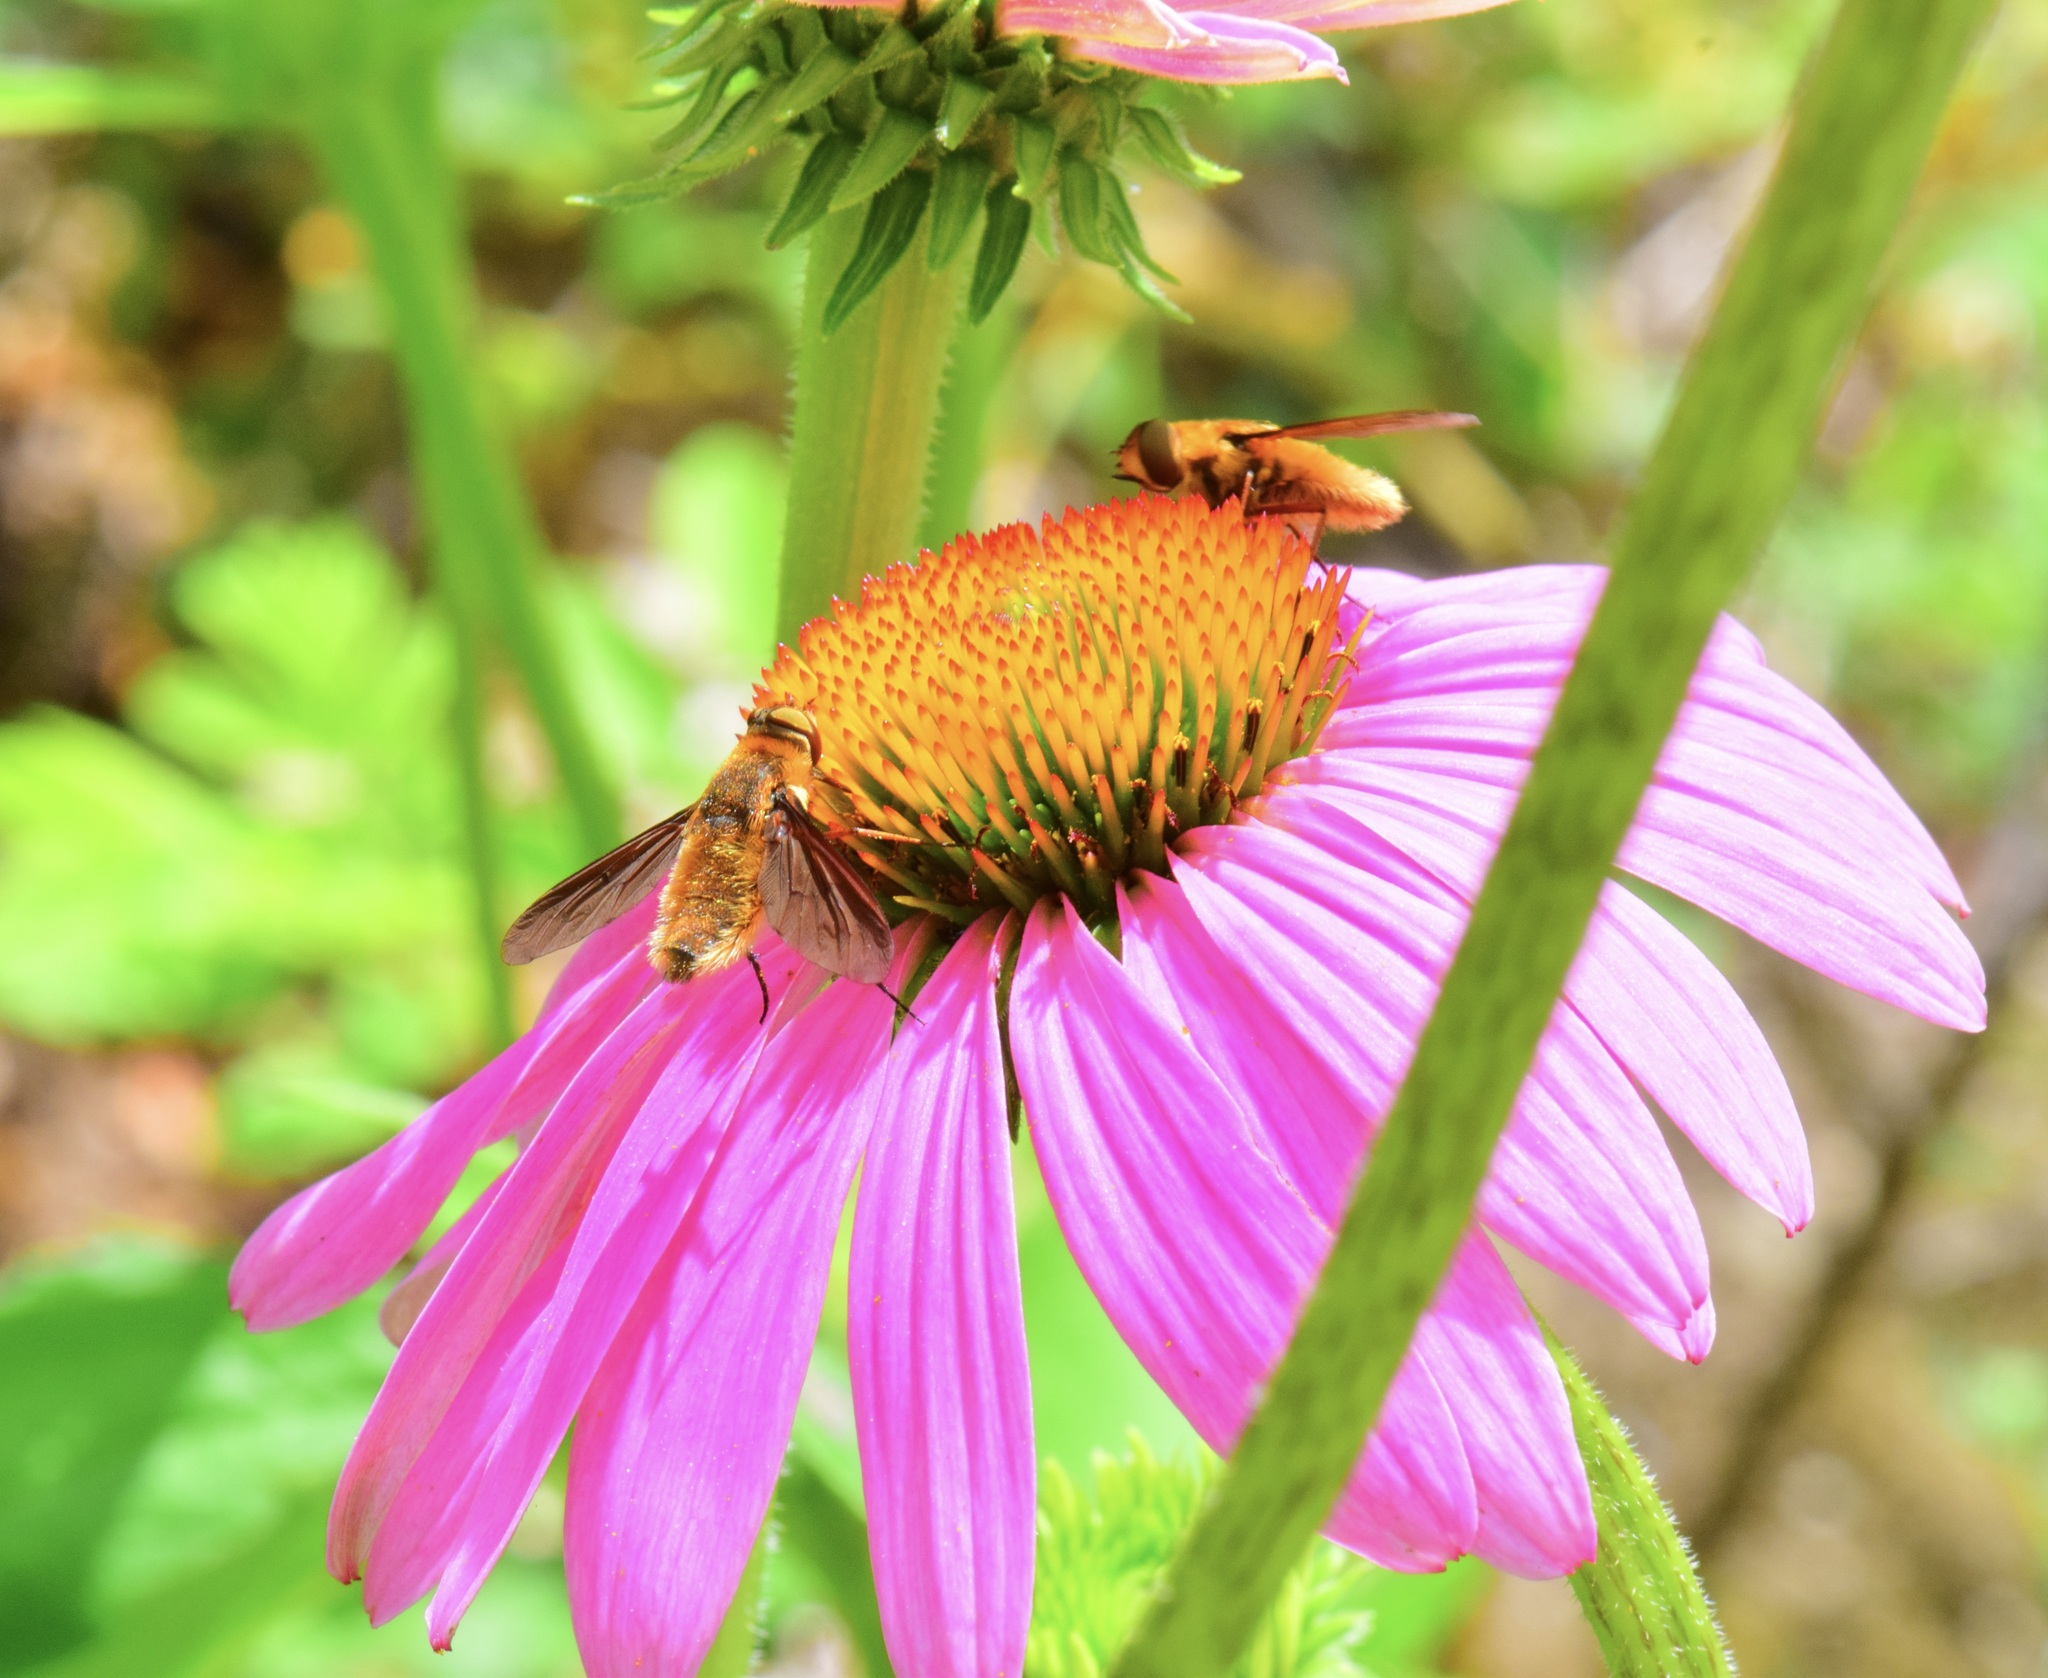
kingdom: Animalia
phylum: Arthropoda
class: Insecta
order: Diptera
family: Bombyliidae
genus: Poecilanthrax
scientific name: Poecilanthrax tegminipennis
